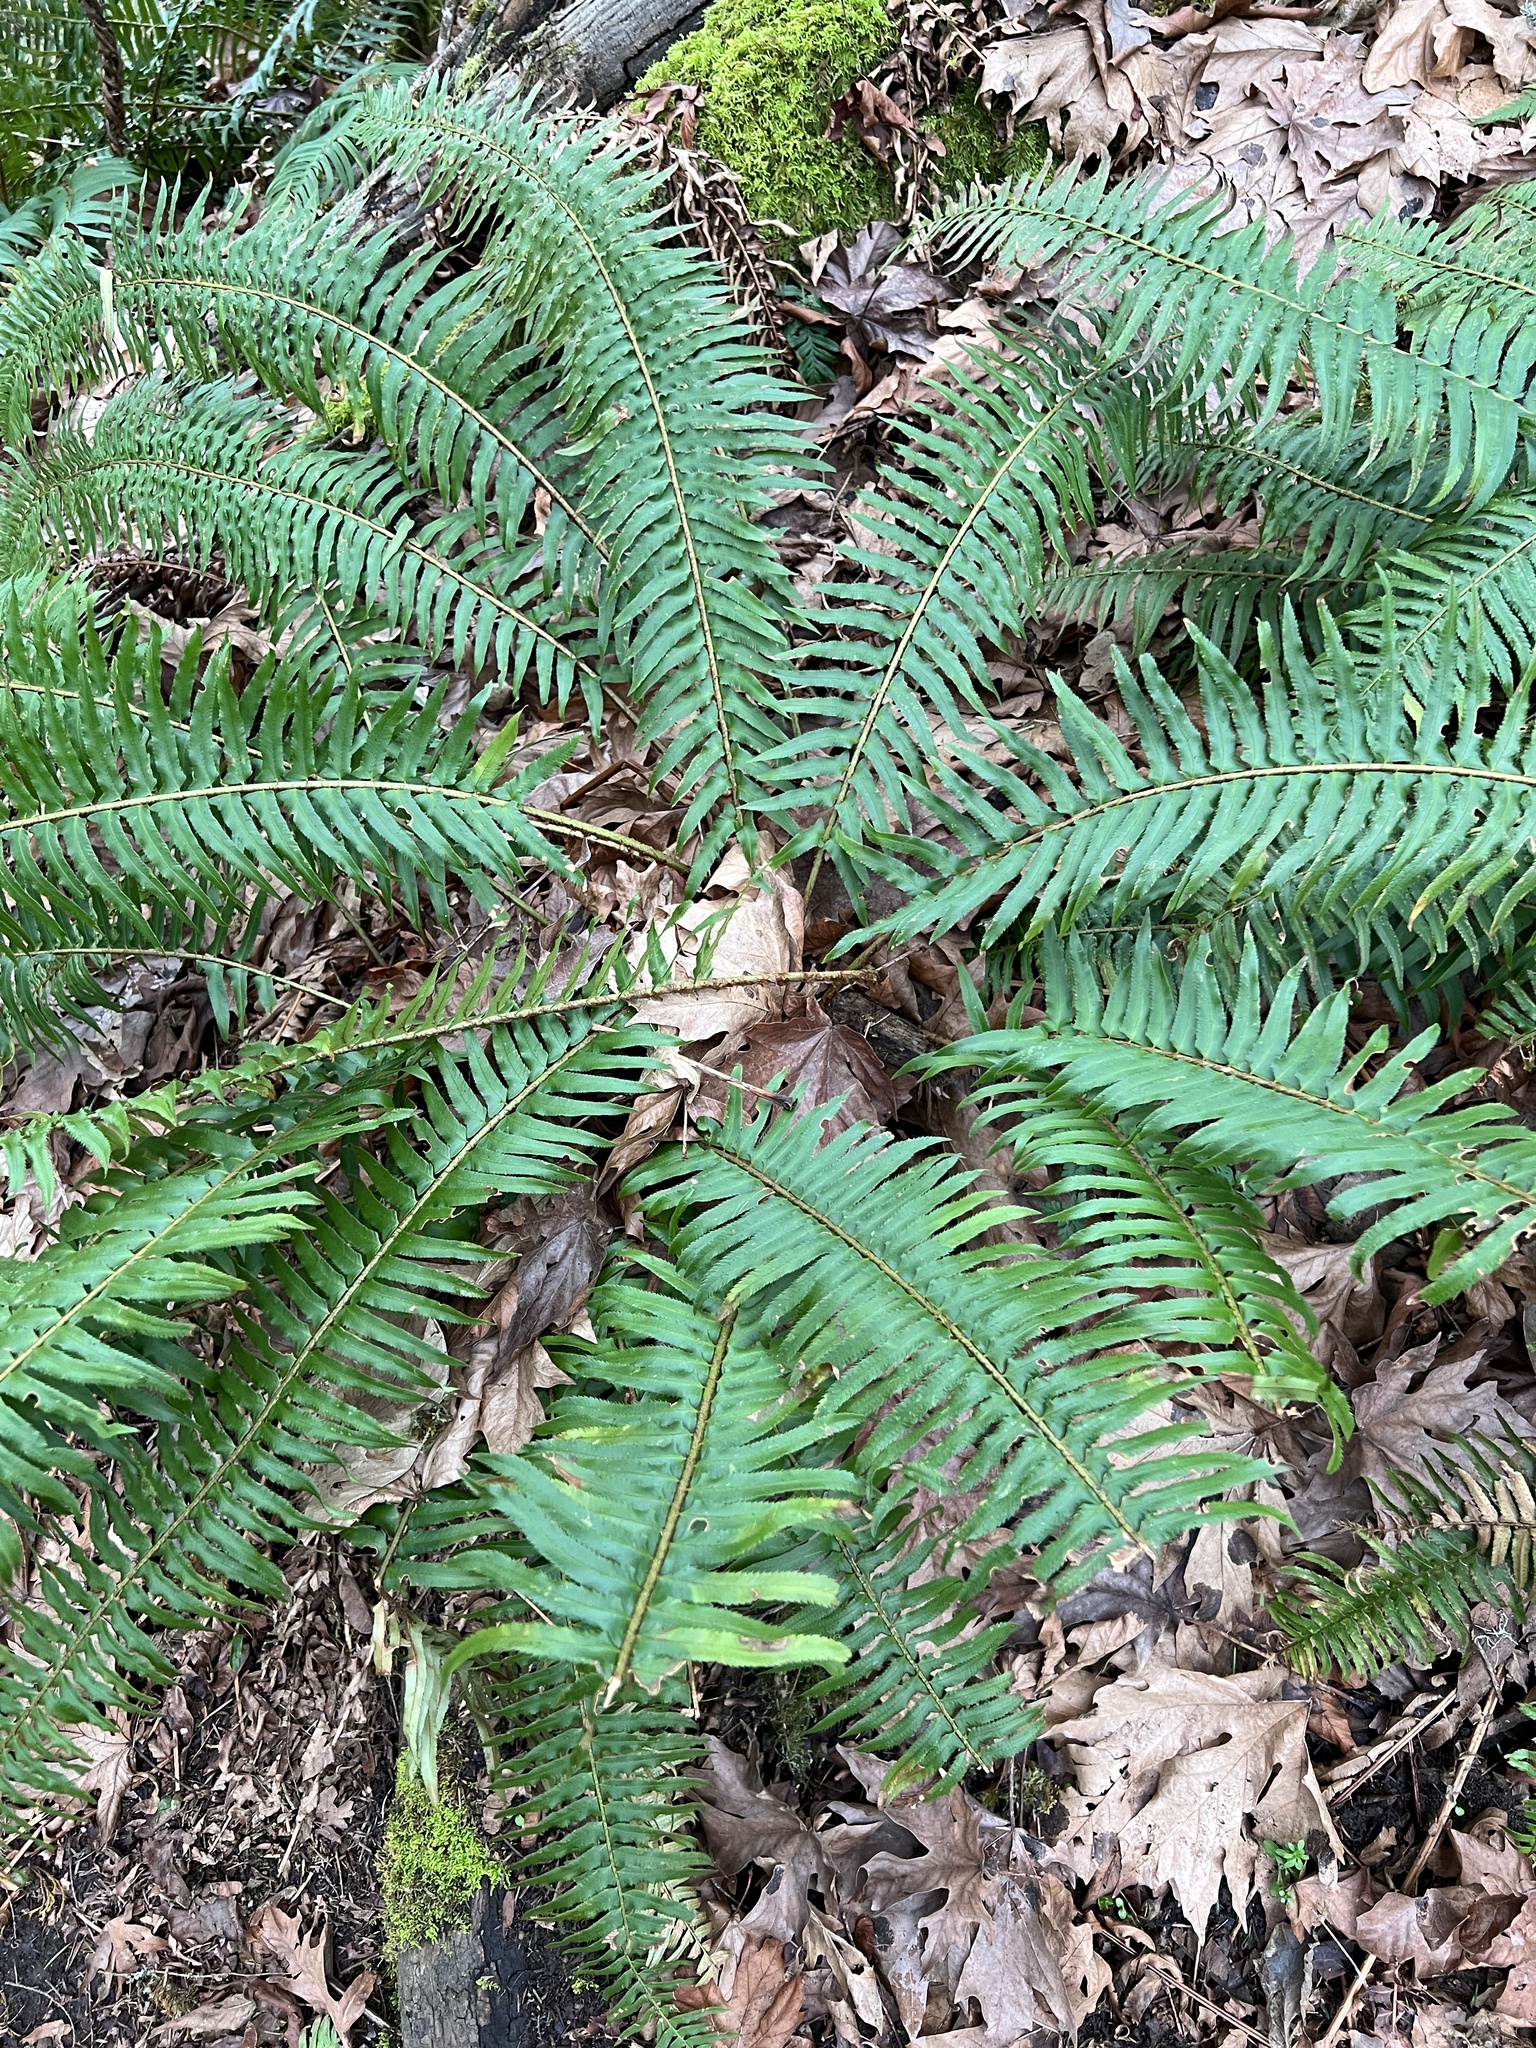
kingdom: Plantae
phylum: Tracheophyta
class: Polypodiopsida
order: Polypodiales
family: Dryopteridaceae
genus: Polystichum
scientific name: Polystichum munitum
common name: Western sword-fern
